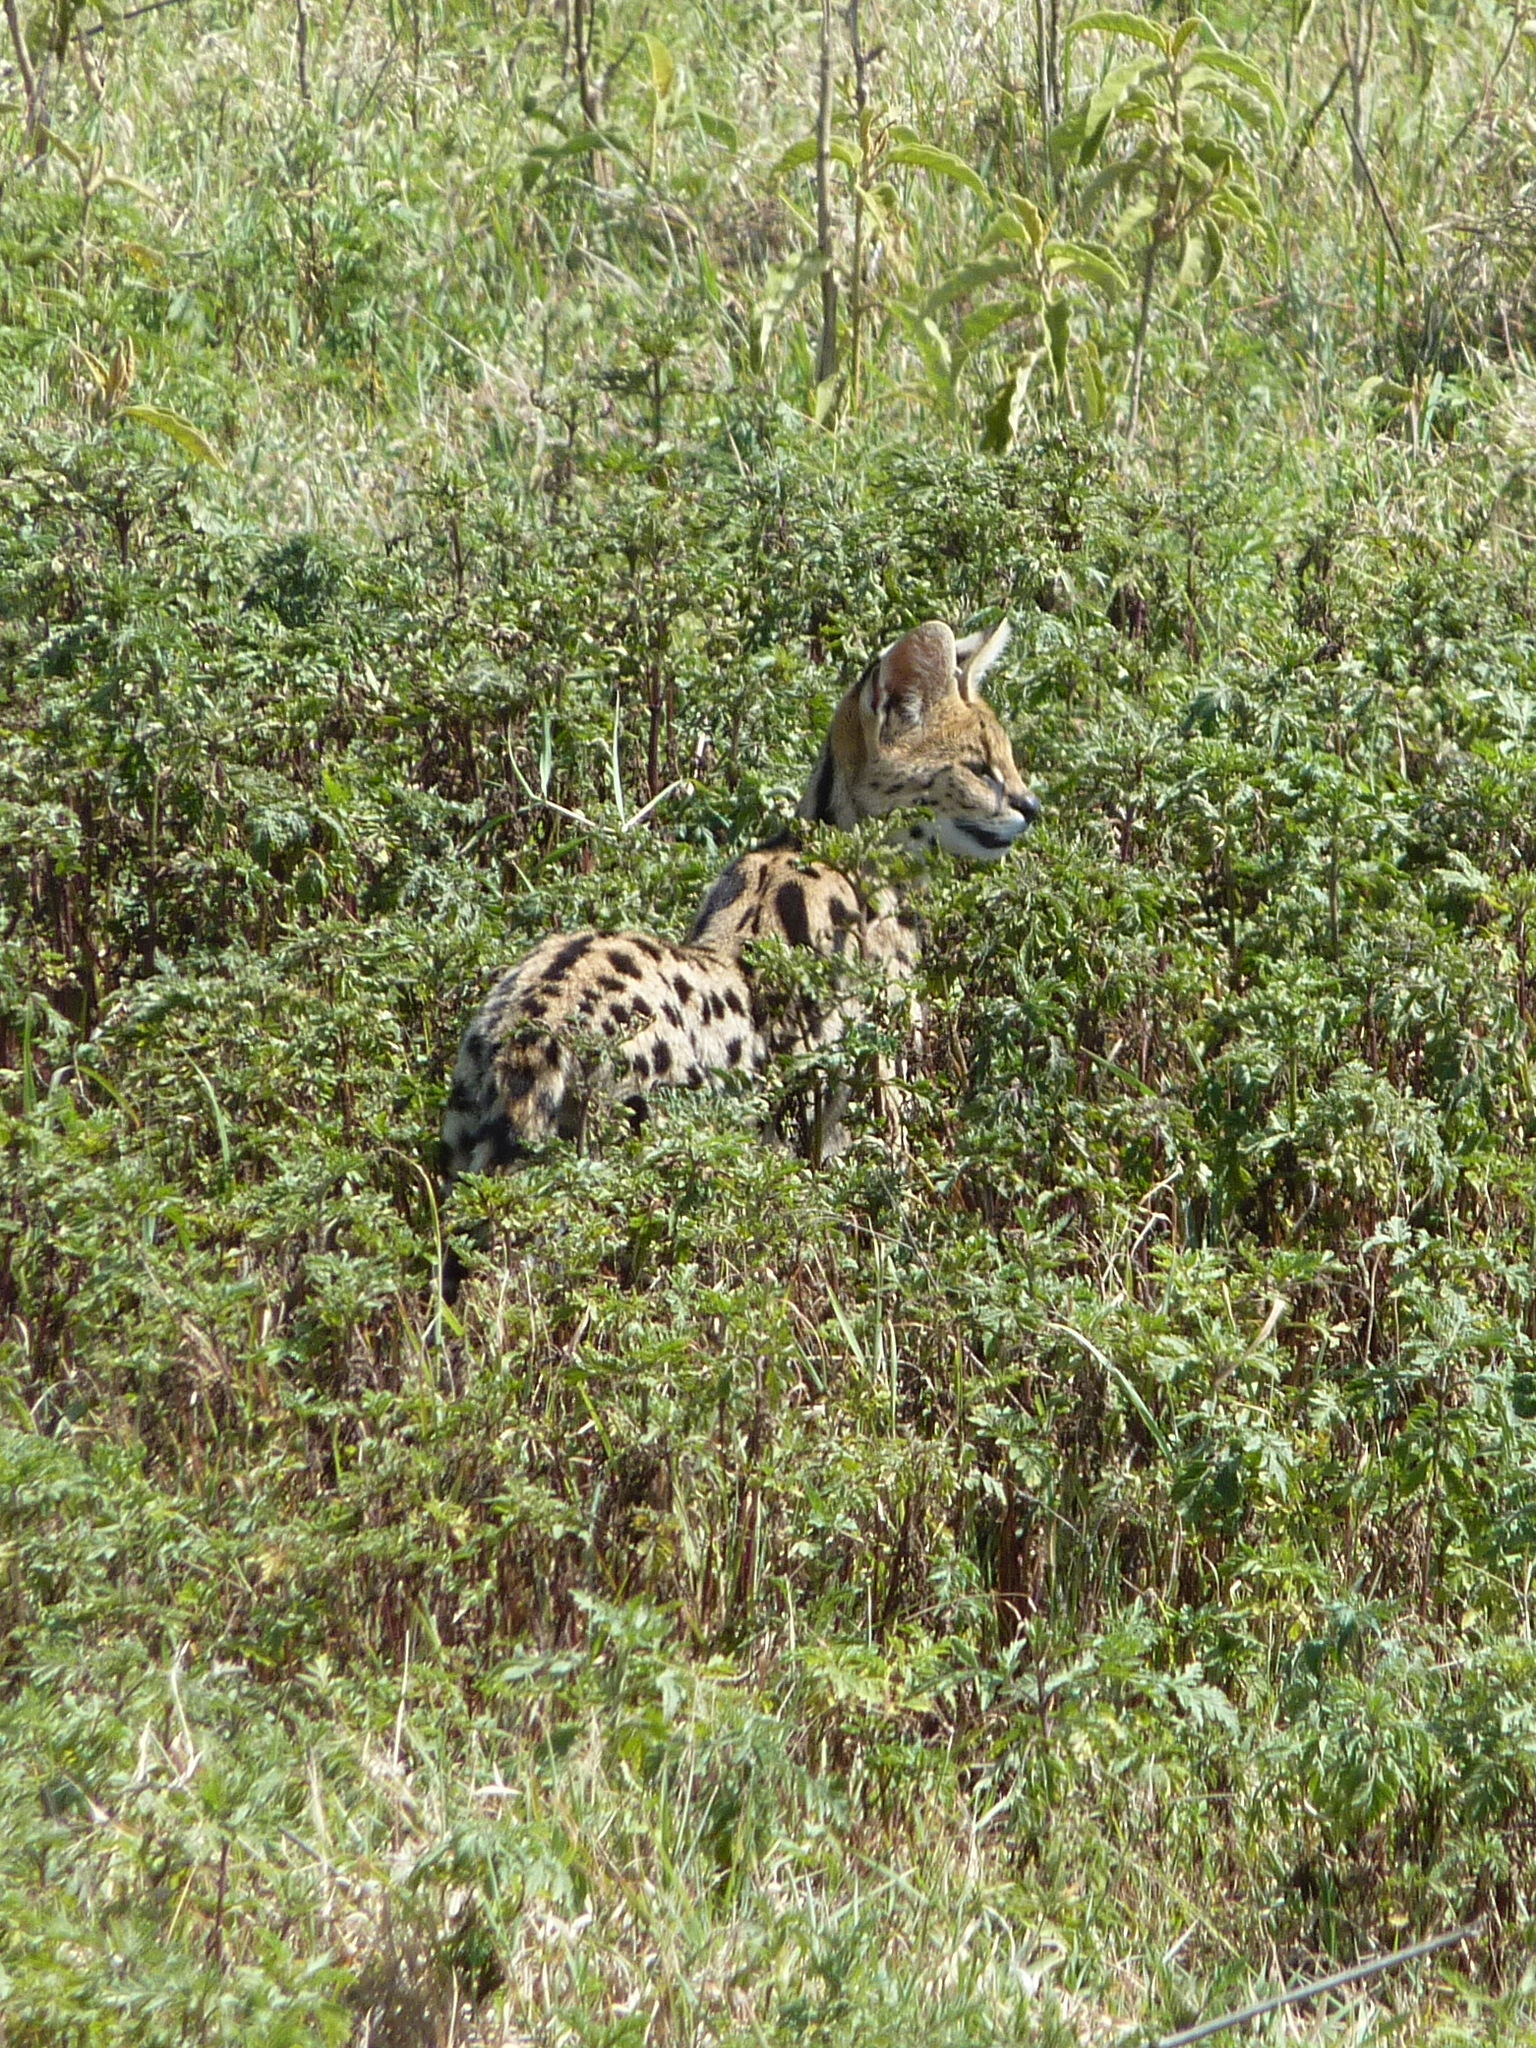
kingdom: Animalia
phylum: Chordata
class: Mammalia
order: Carnivora
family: Felidae
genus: Leptailurus
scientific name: Leptailurus serval
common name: Serval
